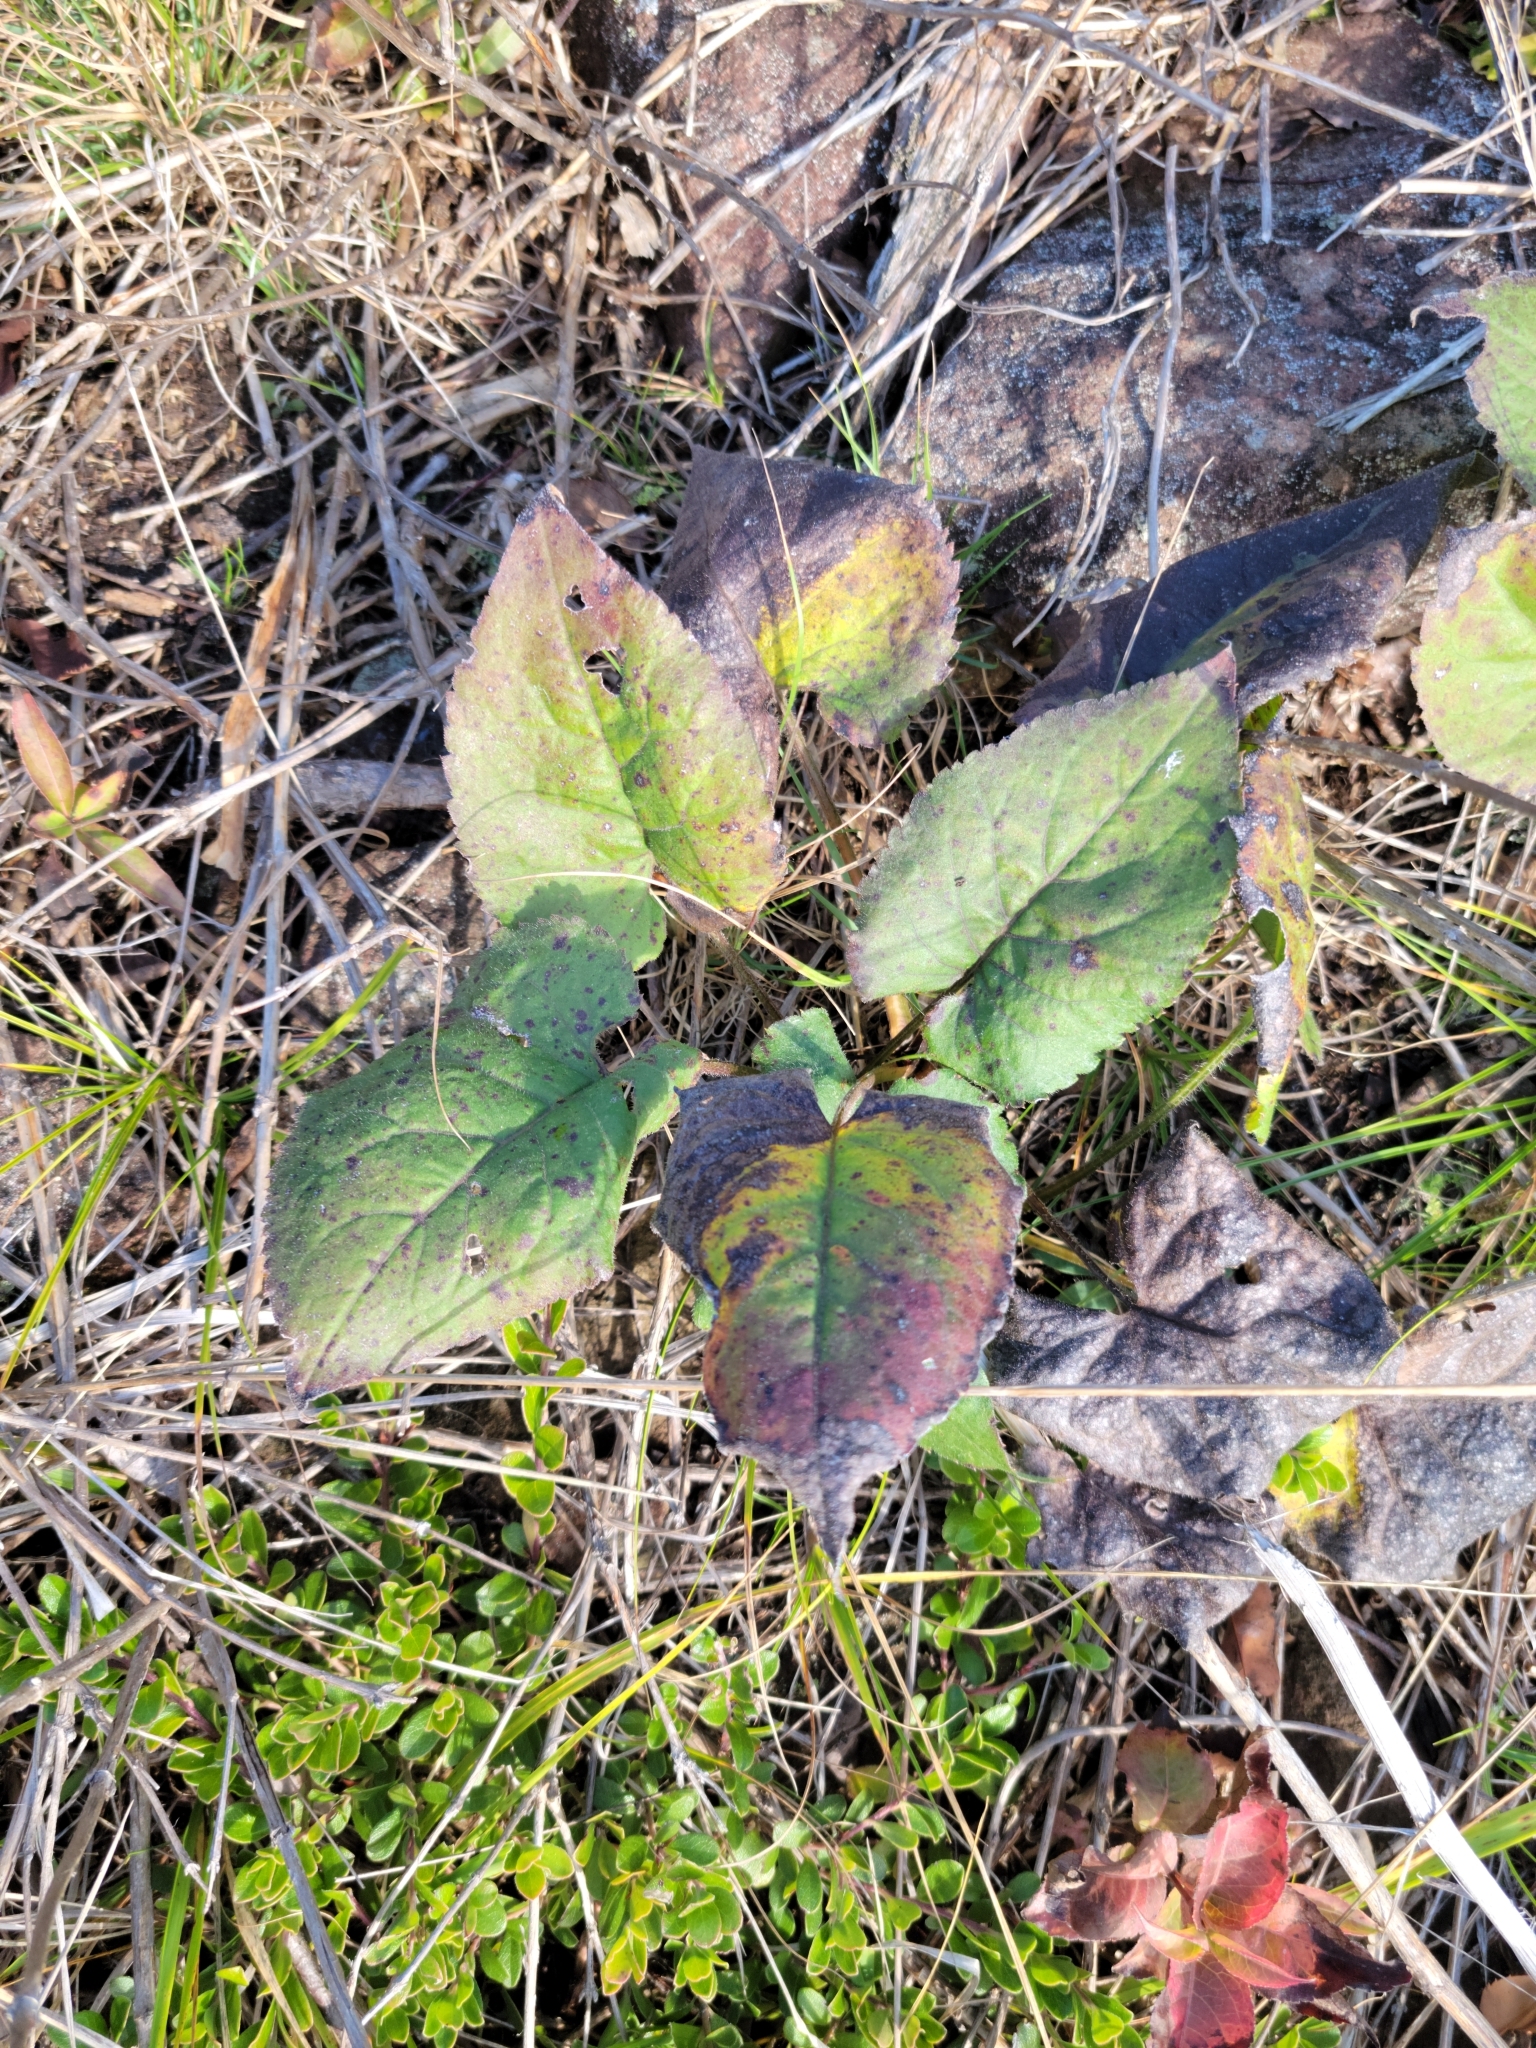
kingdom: Plantae
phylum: Tracheophyta
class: Magnoliopsida
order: Asterales
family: Asteraceae
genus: Eurybia
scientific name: Eurybia macrophylla
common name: Big-leaved aster
